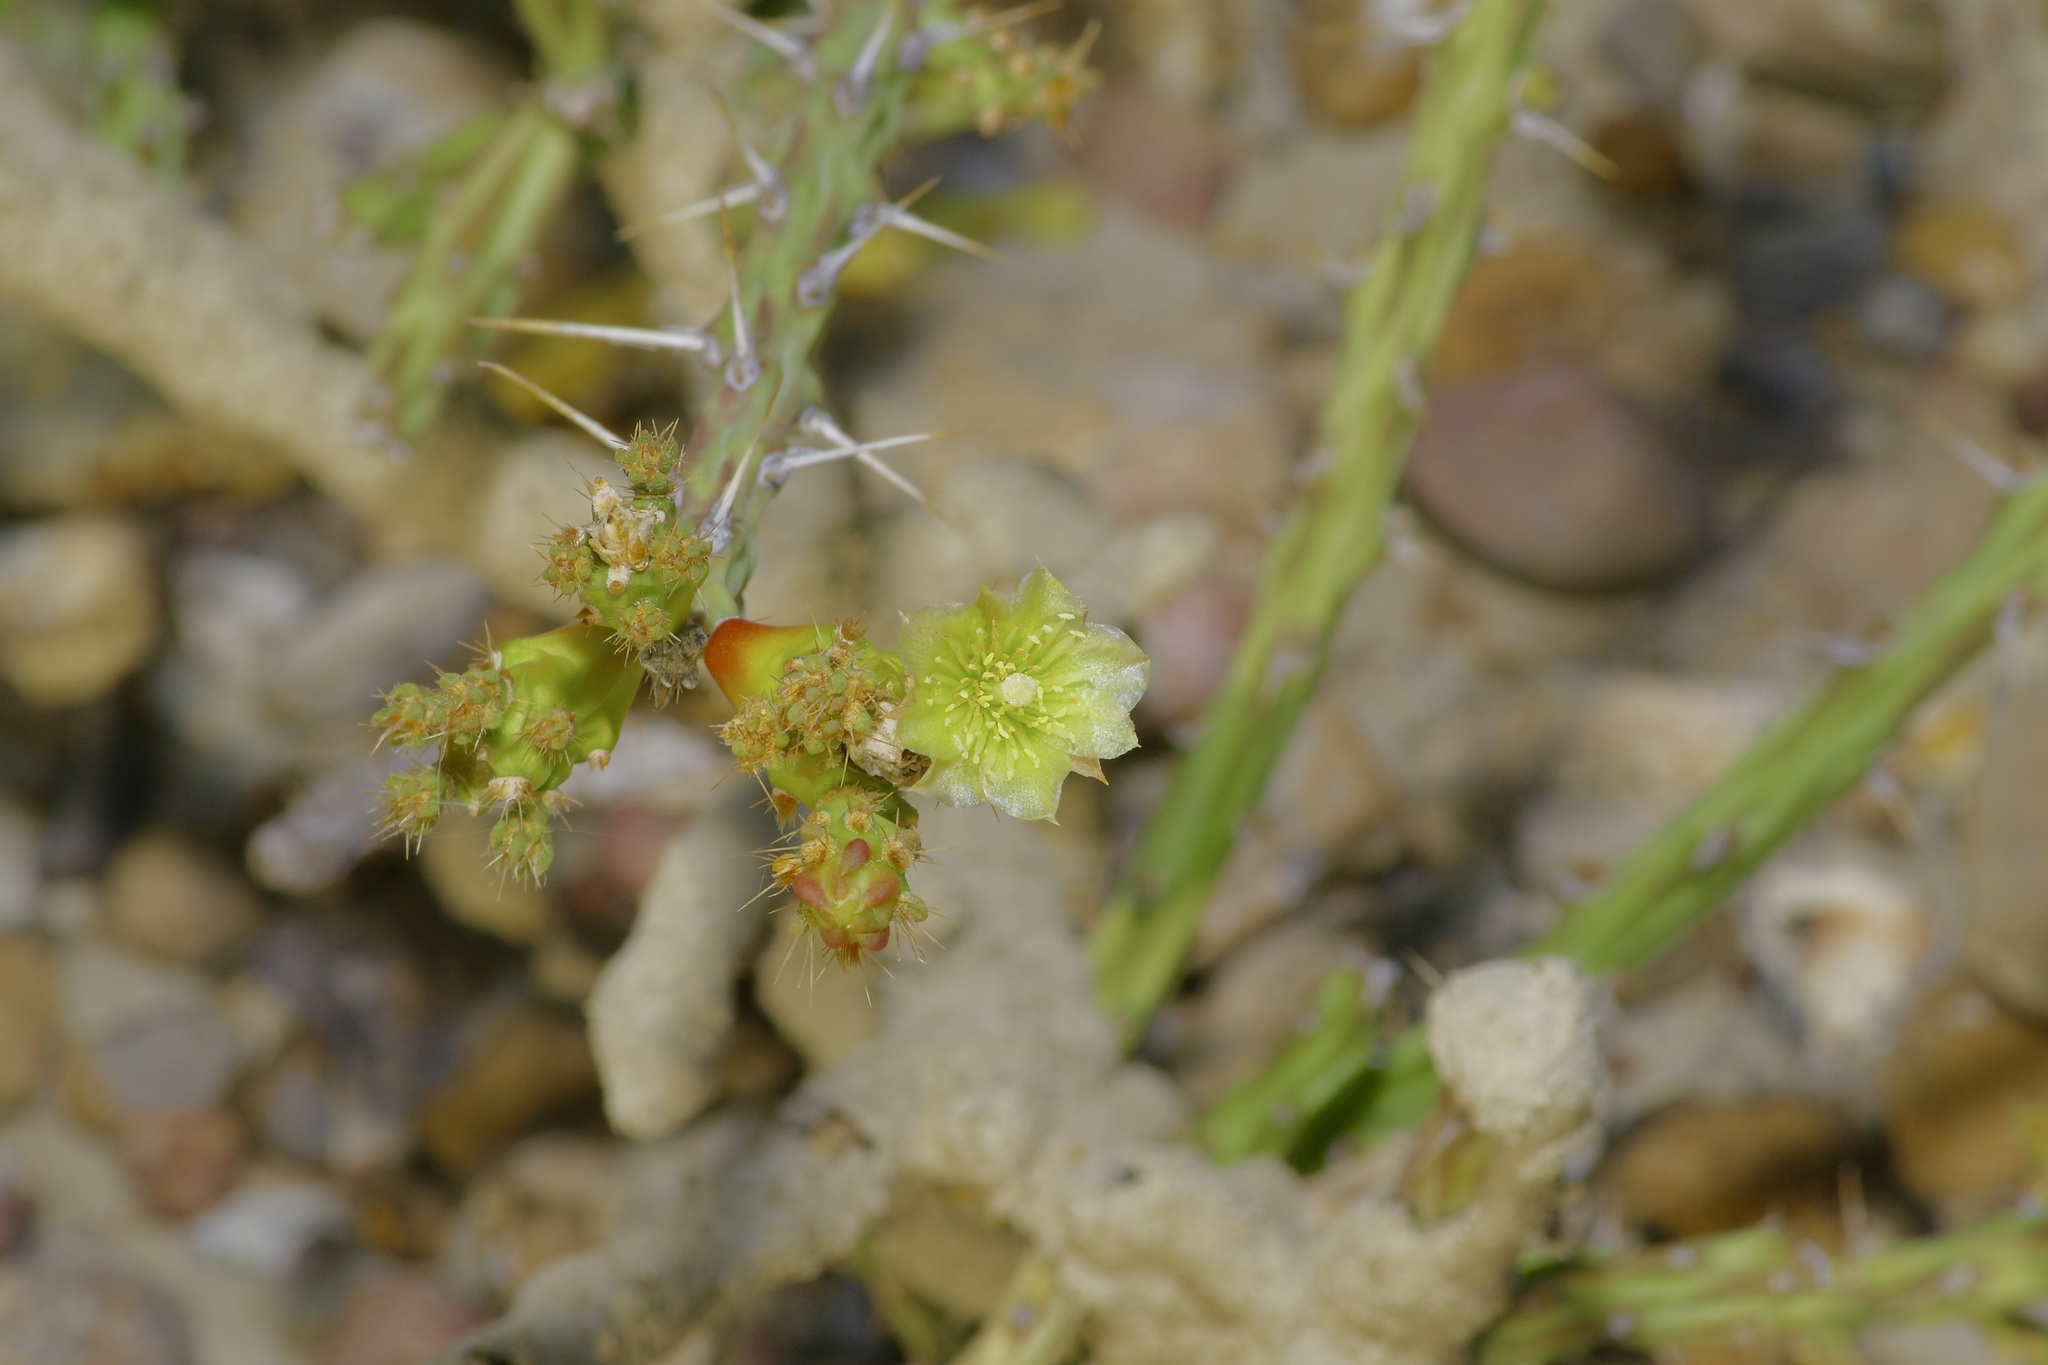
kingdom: Plantae
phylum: Tracheophyta
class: Magnoliopsida
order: Caryophyllales
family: Cactaceae
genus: Cylindropuntia
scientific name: Cylindropuntia leptocaulis
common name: Christmas cactus
